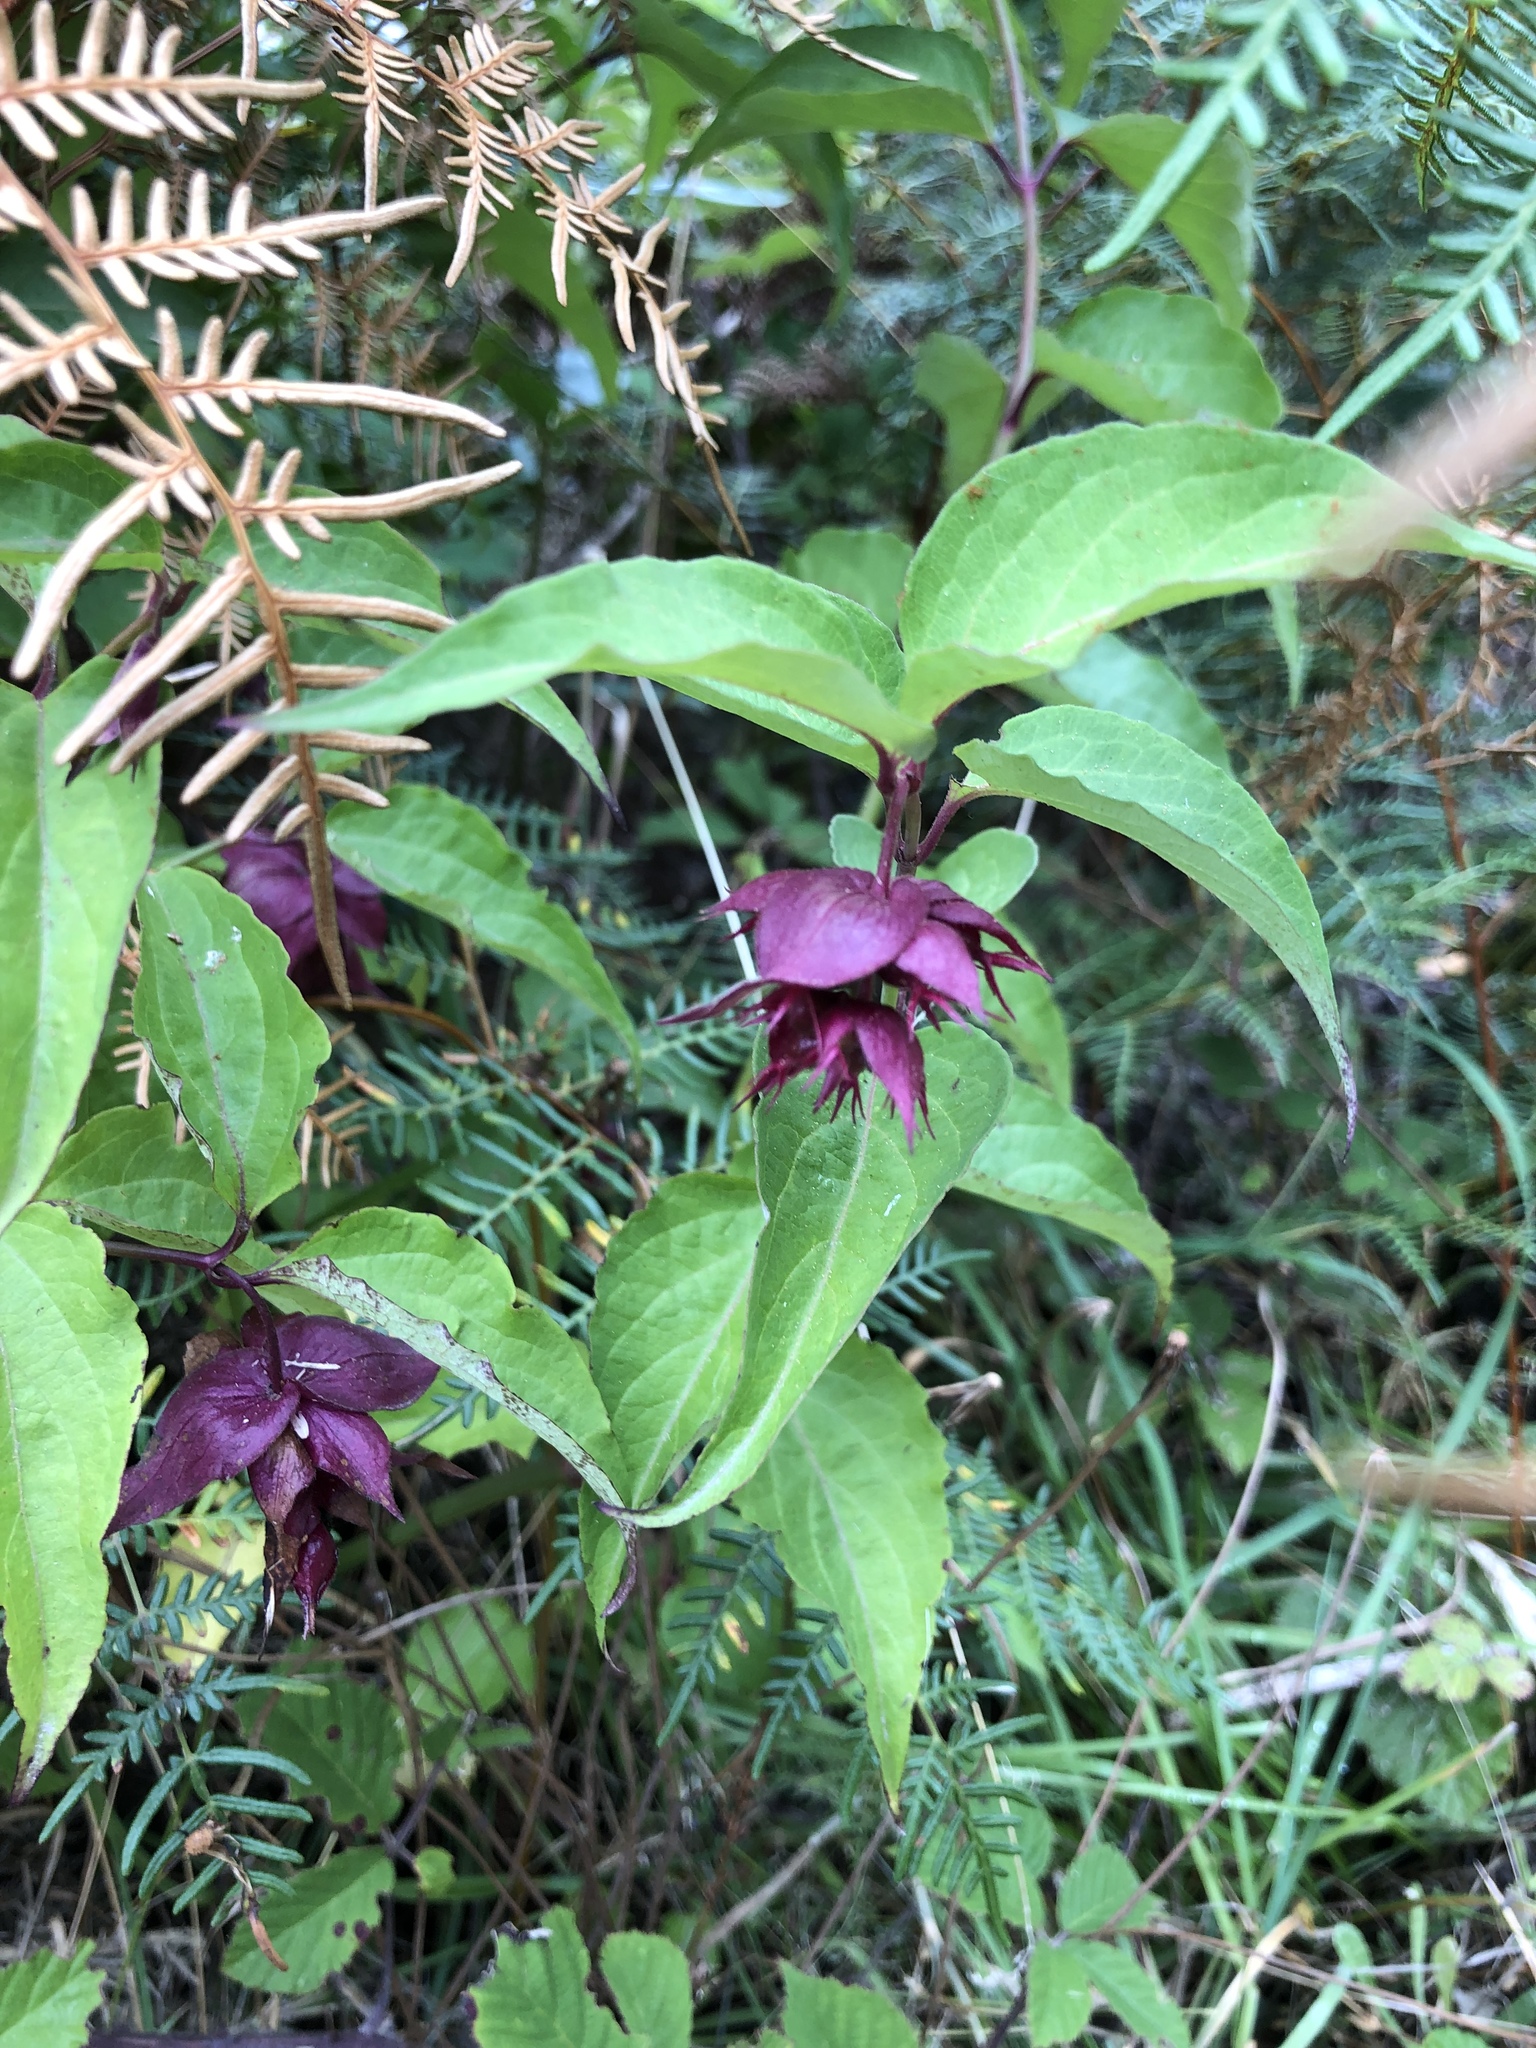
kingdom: Plantae
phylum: Tracheophyta
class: Magnoliopsida
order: Dipsacales
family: Caprifoliaceae
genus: Leycesteria
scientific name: Leycesteria formosa
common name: Himalayan honeysuckle
